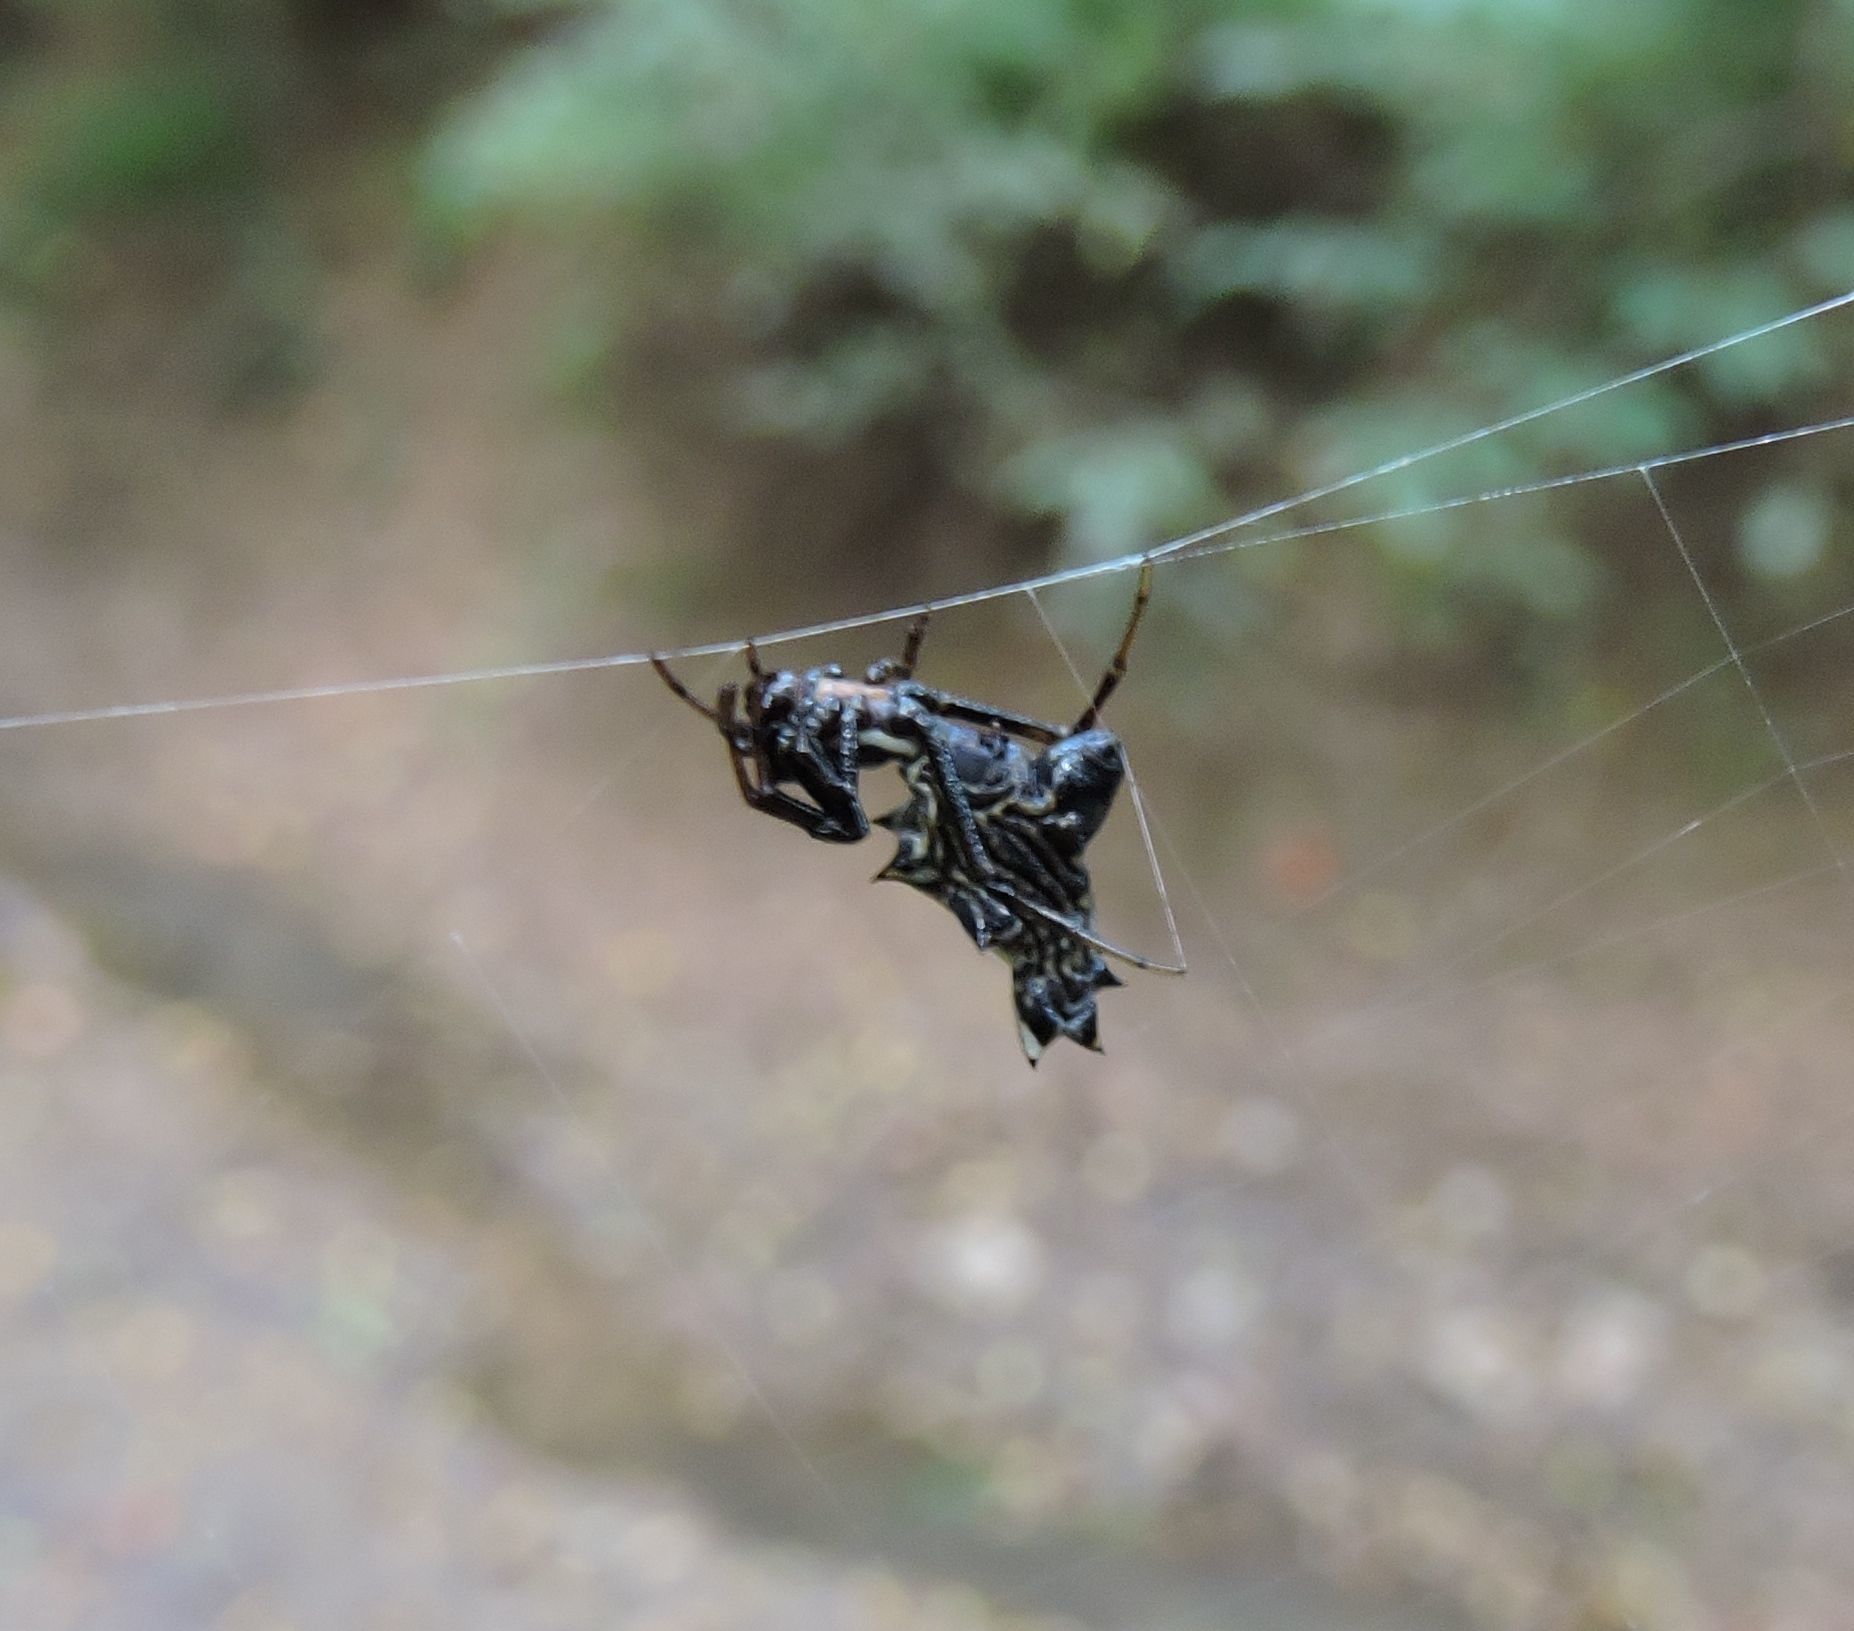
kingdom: Animalia
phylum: Arthropoda
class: Arachnida
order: Araneae
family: Araneidae
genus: Micrathena
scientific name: Micrathena gracilis
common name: Orb weavers
